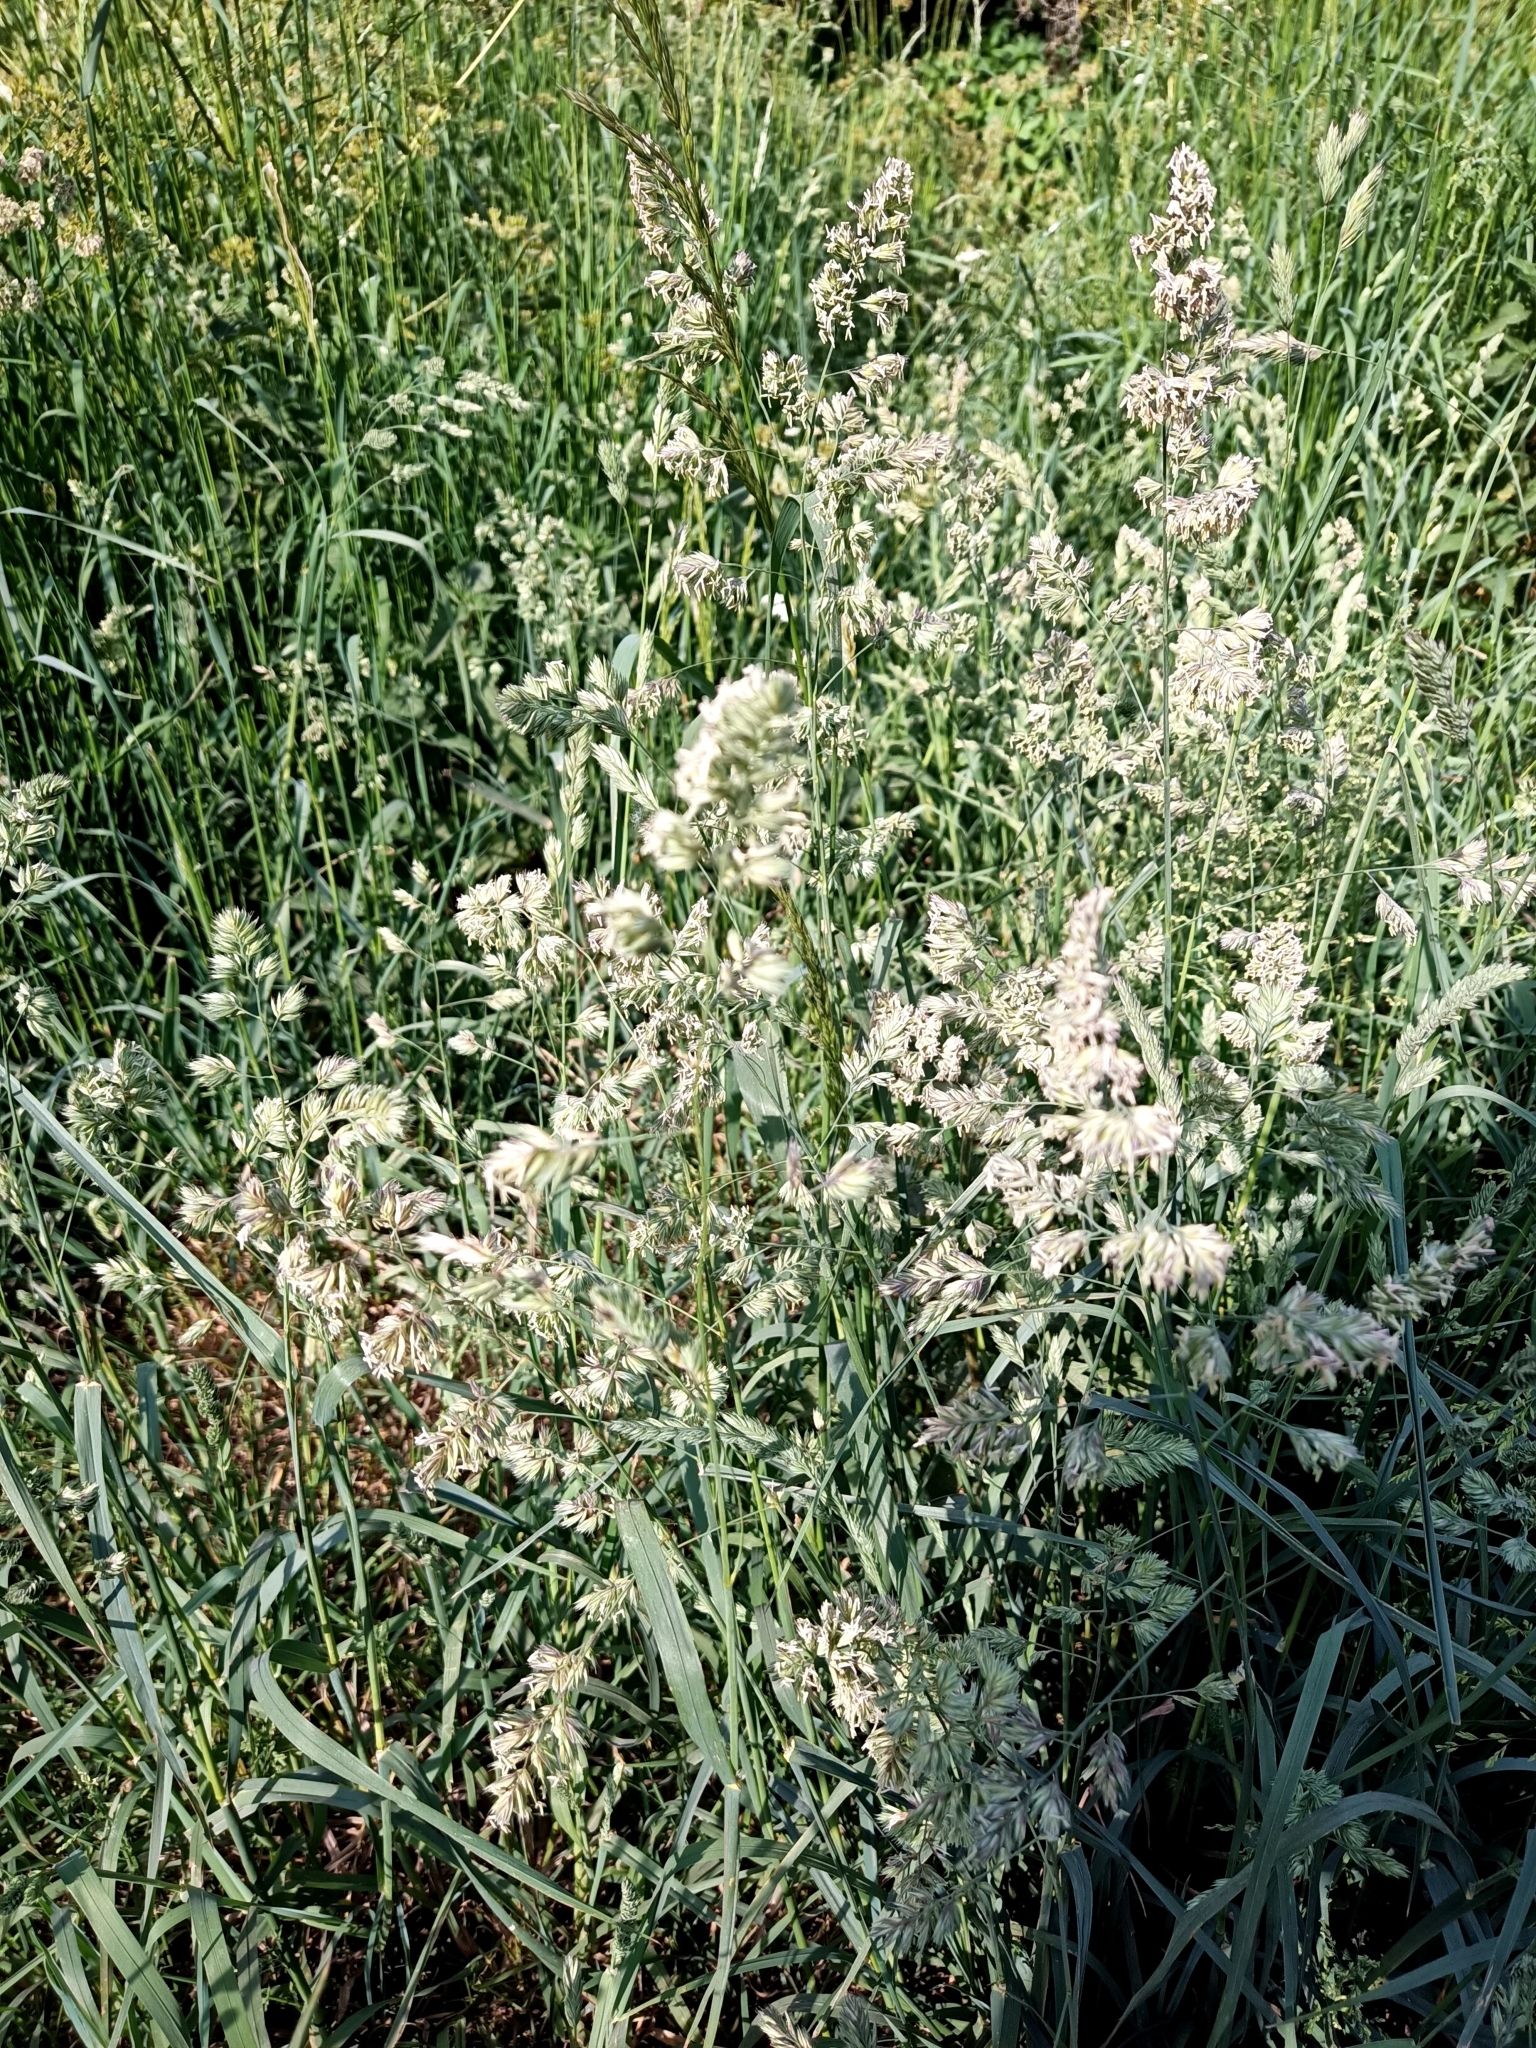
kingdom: Plantae
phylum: Tracheophyta
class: Liliopsida
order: Poales
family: Poaceae
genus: Dactylis
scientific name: Dactylis glomerata
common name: Orchardgrass
